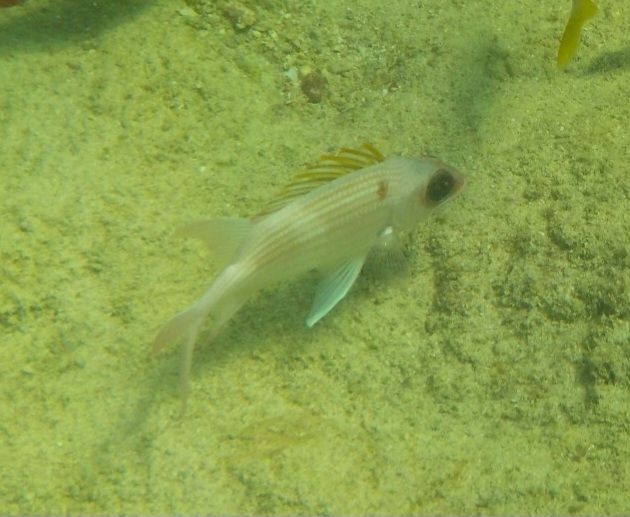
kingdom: Animalia
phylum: Chordata
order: Beryciformes
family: Holocentridae
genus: Holocentrus
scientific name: Holocentrus adscensionis
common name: Squirrelfish
